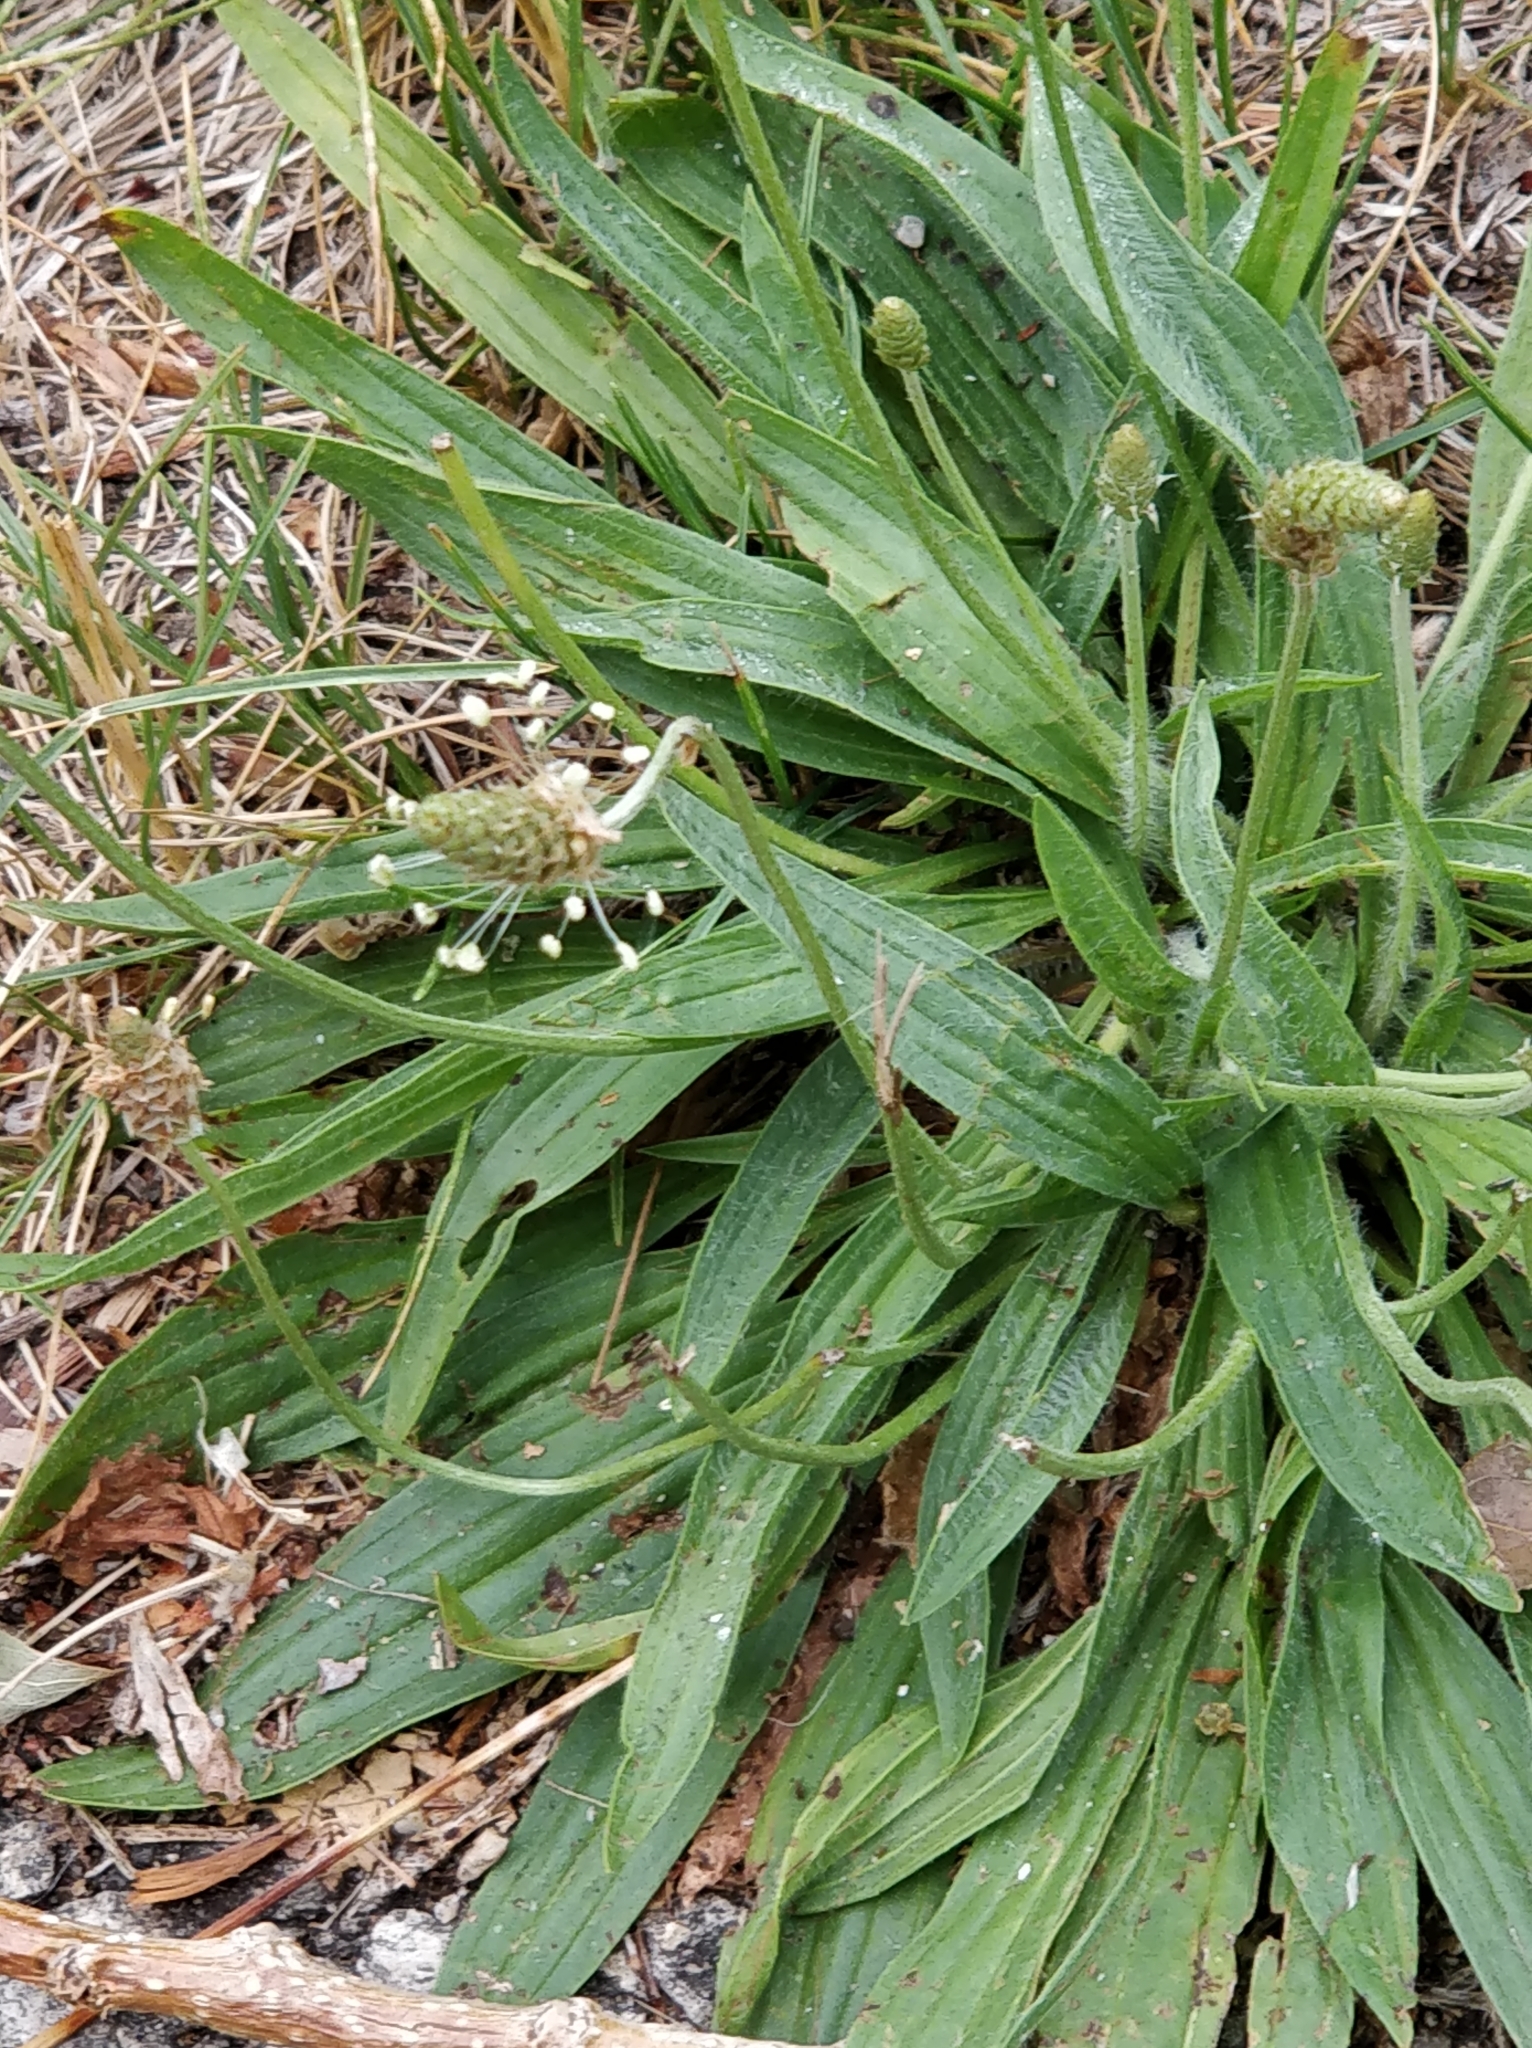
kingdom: Plantae
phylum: Tracheophyta
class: Magnoliopsida
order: Lamiales
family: Plantaginaceae
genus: Plantago
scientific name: Plantago lanceolata
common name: Ribwort plantain
